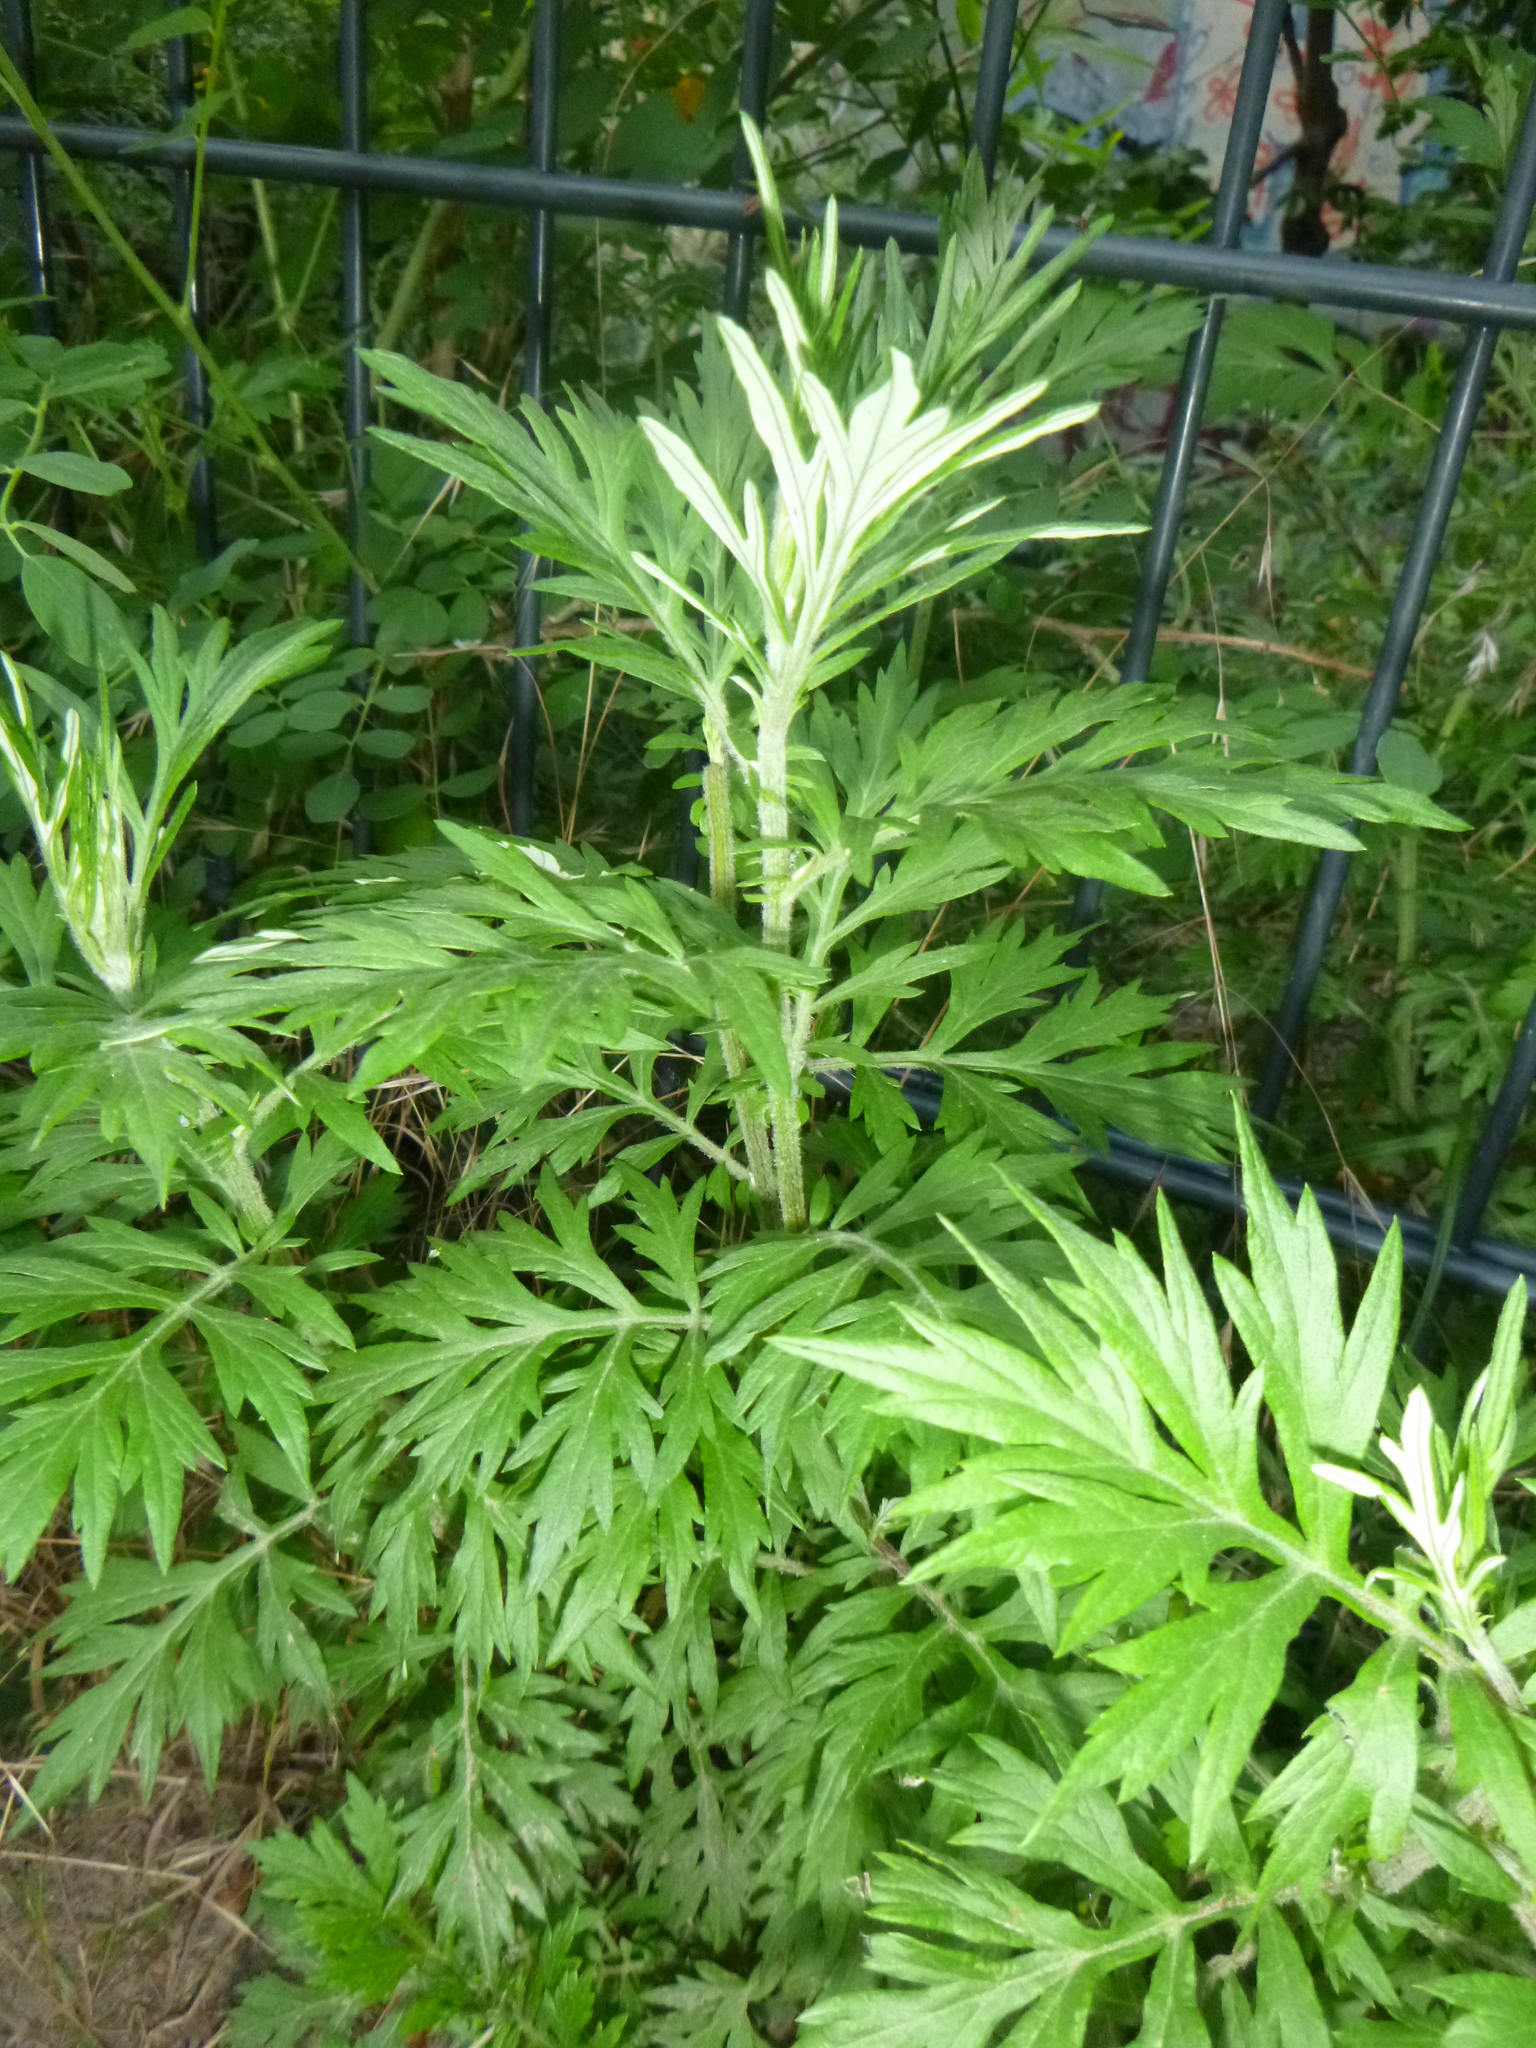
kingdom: Plantae
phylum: Tracheophyta
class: Magnoliopsida
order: Asterales
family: Asteraceae
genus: Artemisia
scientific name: Artemisia vulgaris
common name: Mugwort
